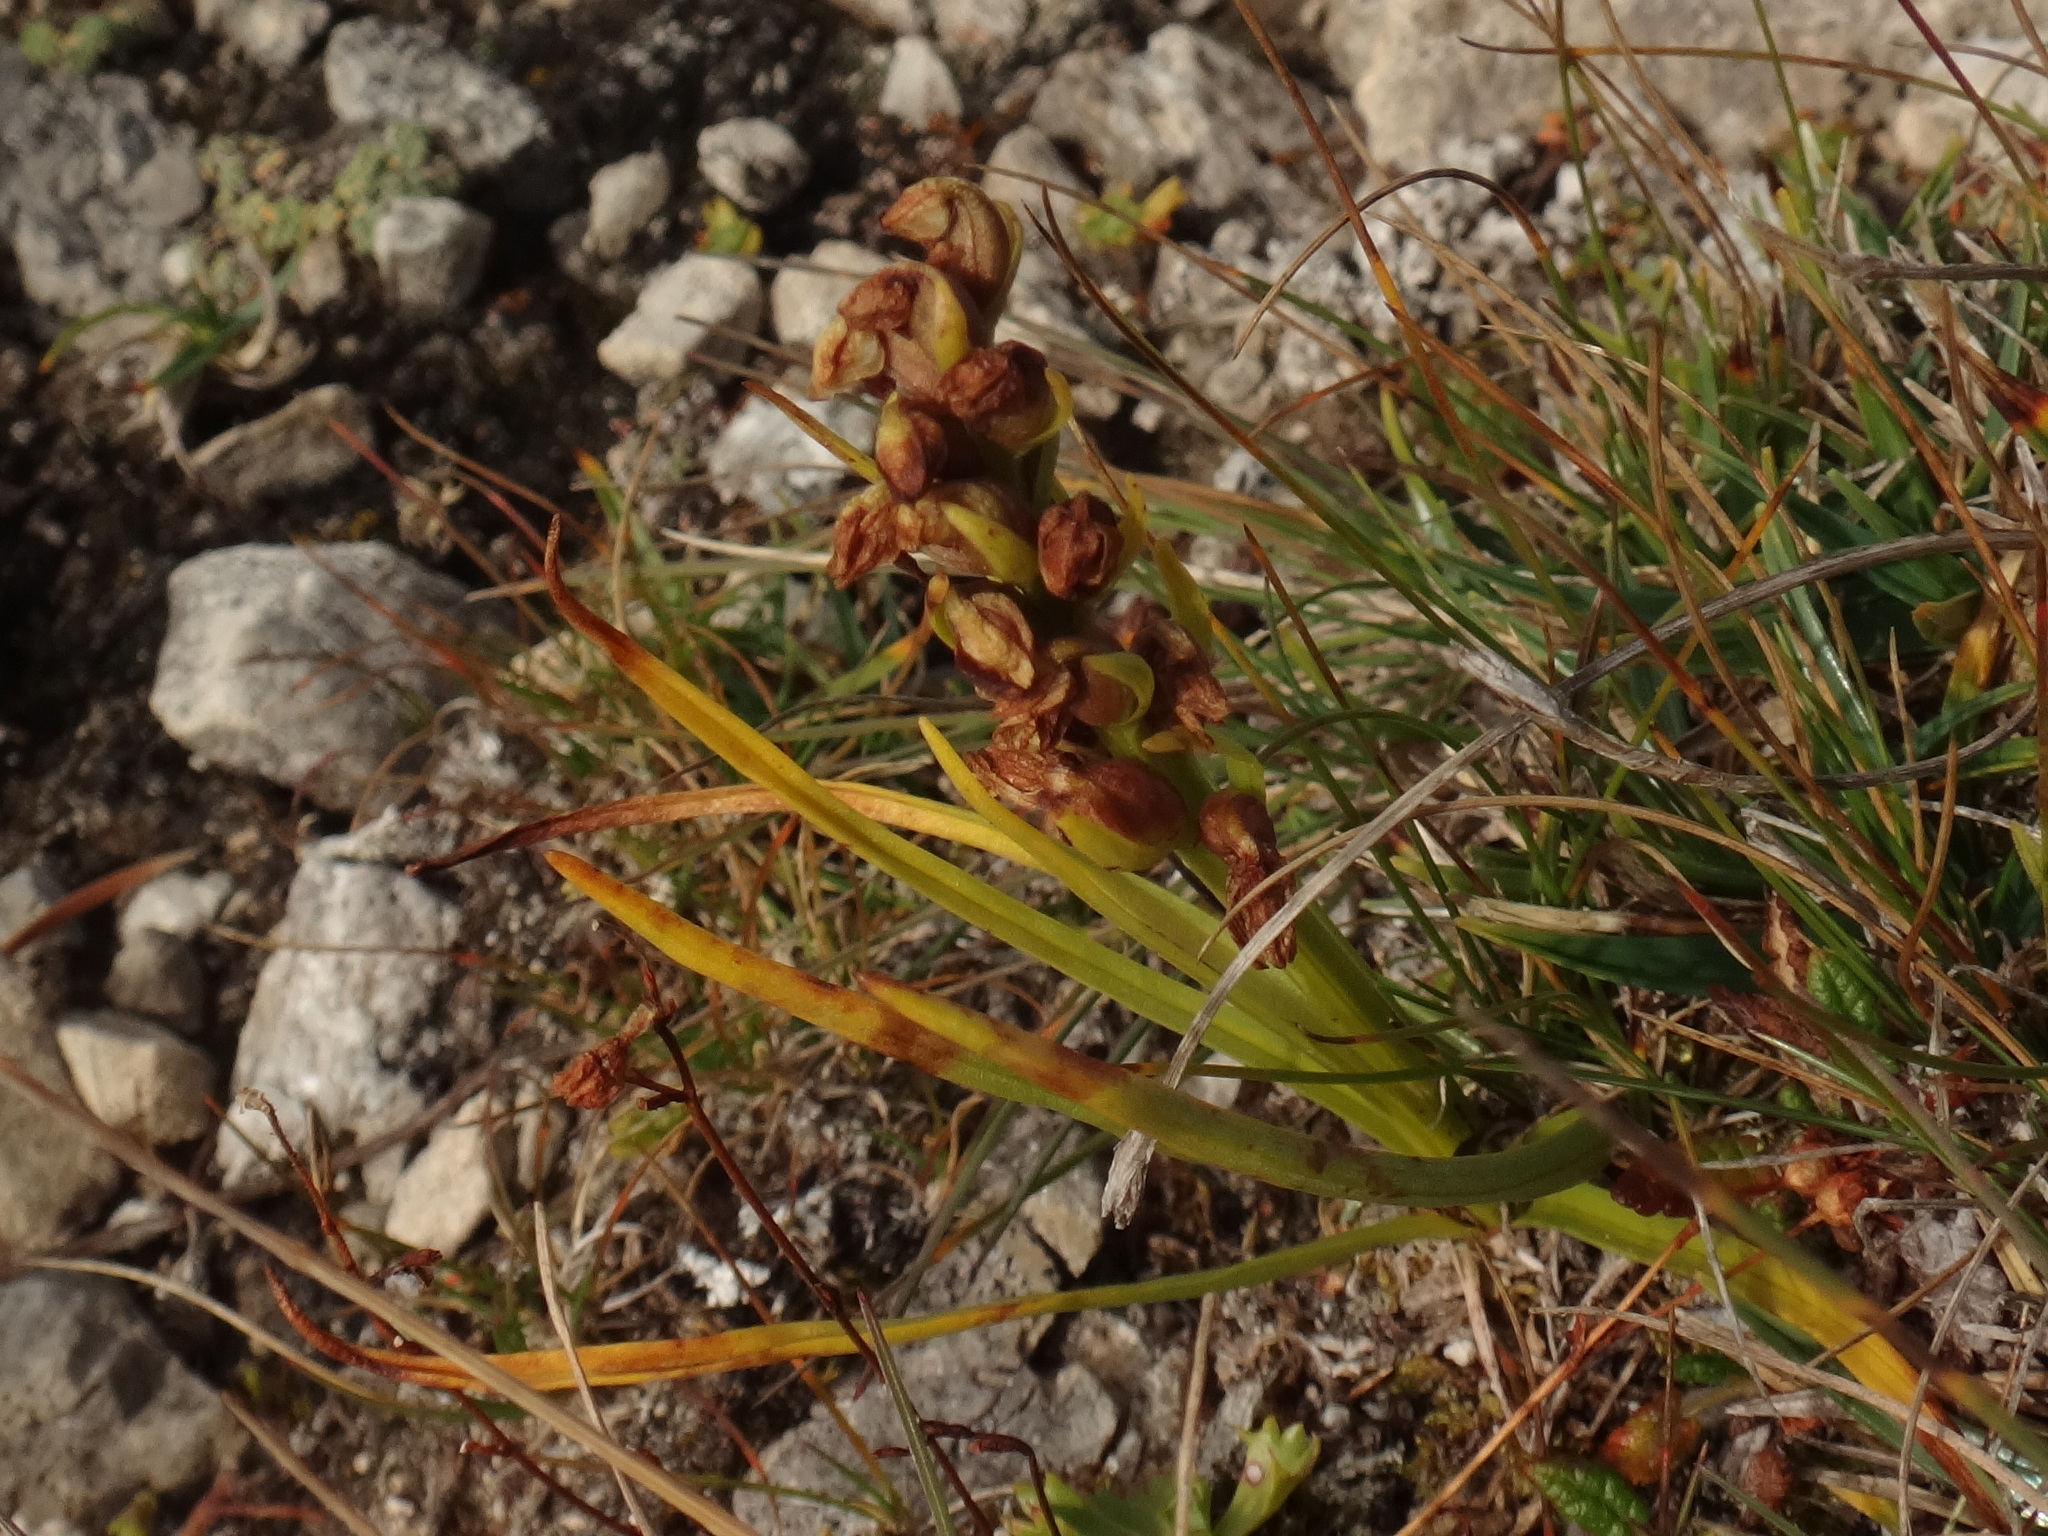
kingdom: Plantae
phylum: Tracheophyta
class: Liliopsida
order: Asparagales
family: Orchidaceae
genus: Chamorchis
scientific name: Chamorchis alpina
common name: Alpine chamorchis
